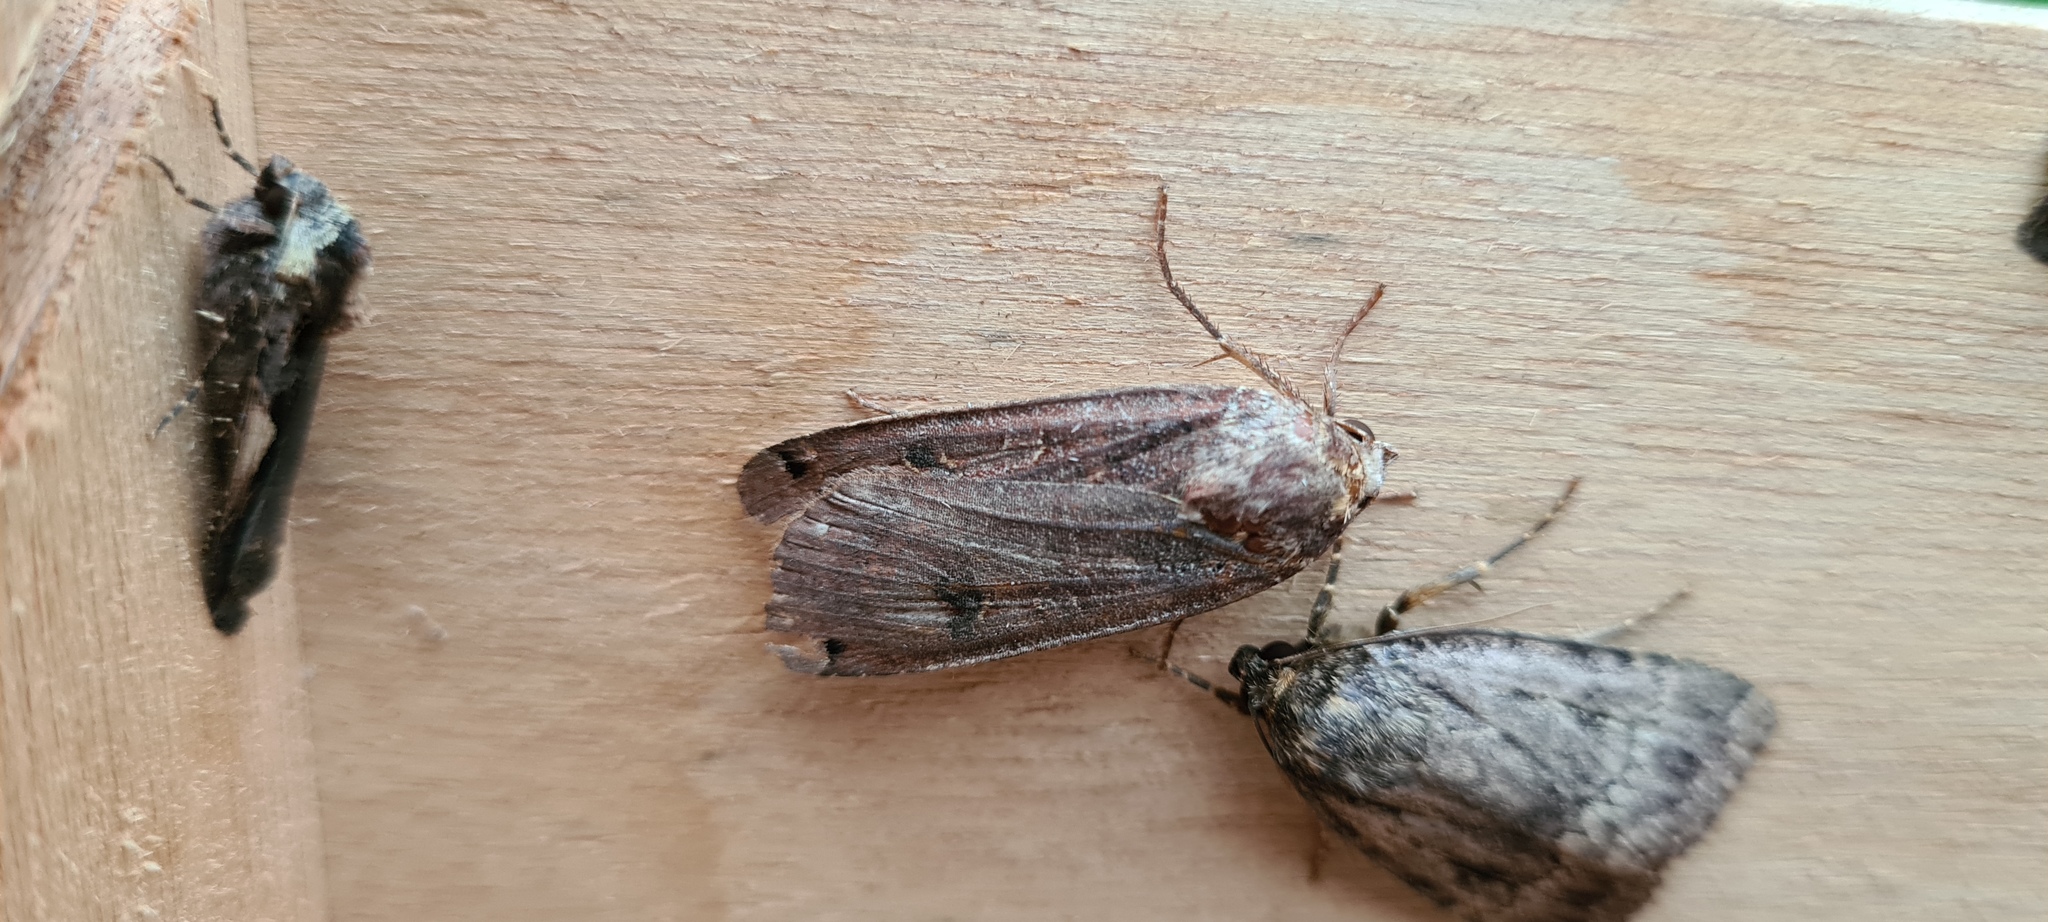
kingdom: Animalia
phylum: Arthropoda
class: Insecta
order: Lepidoptera
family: Noctuidae
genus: Noctua
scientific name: Noctua pronuba
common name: Large yellow underwing
